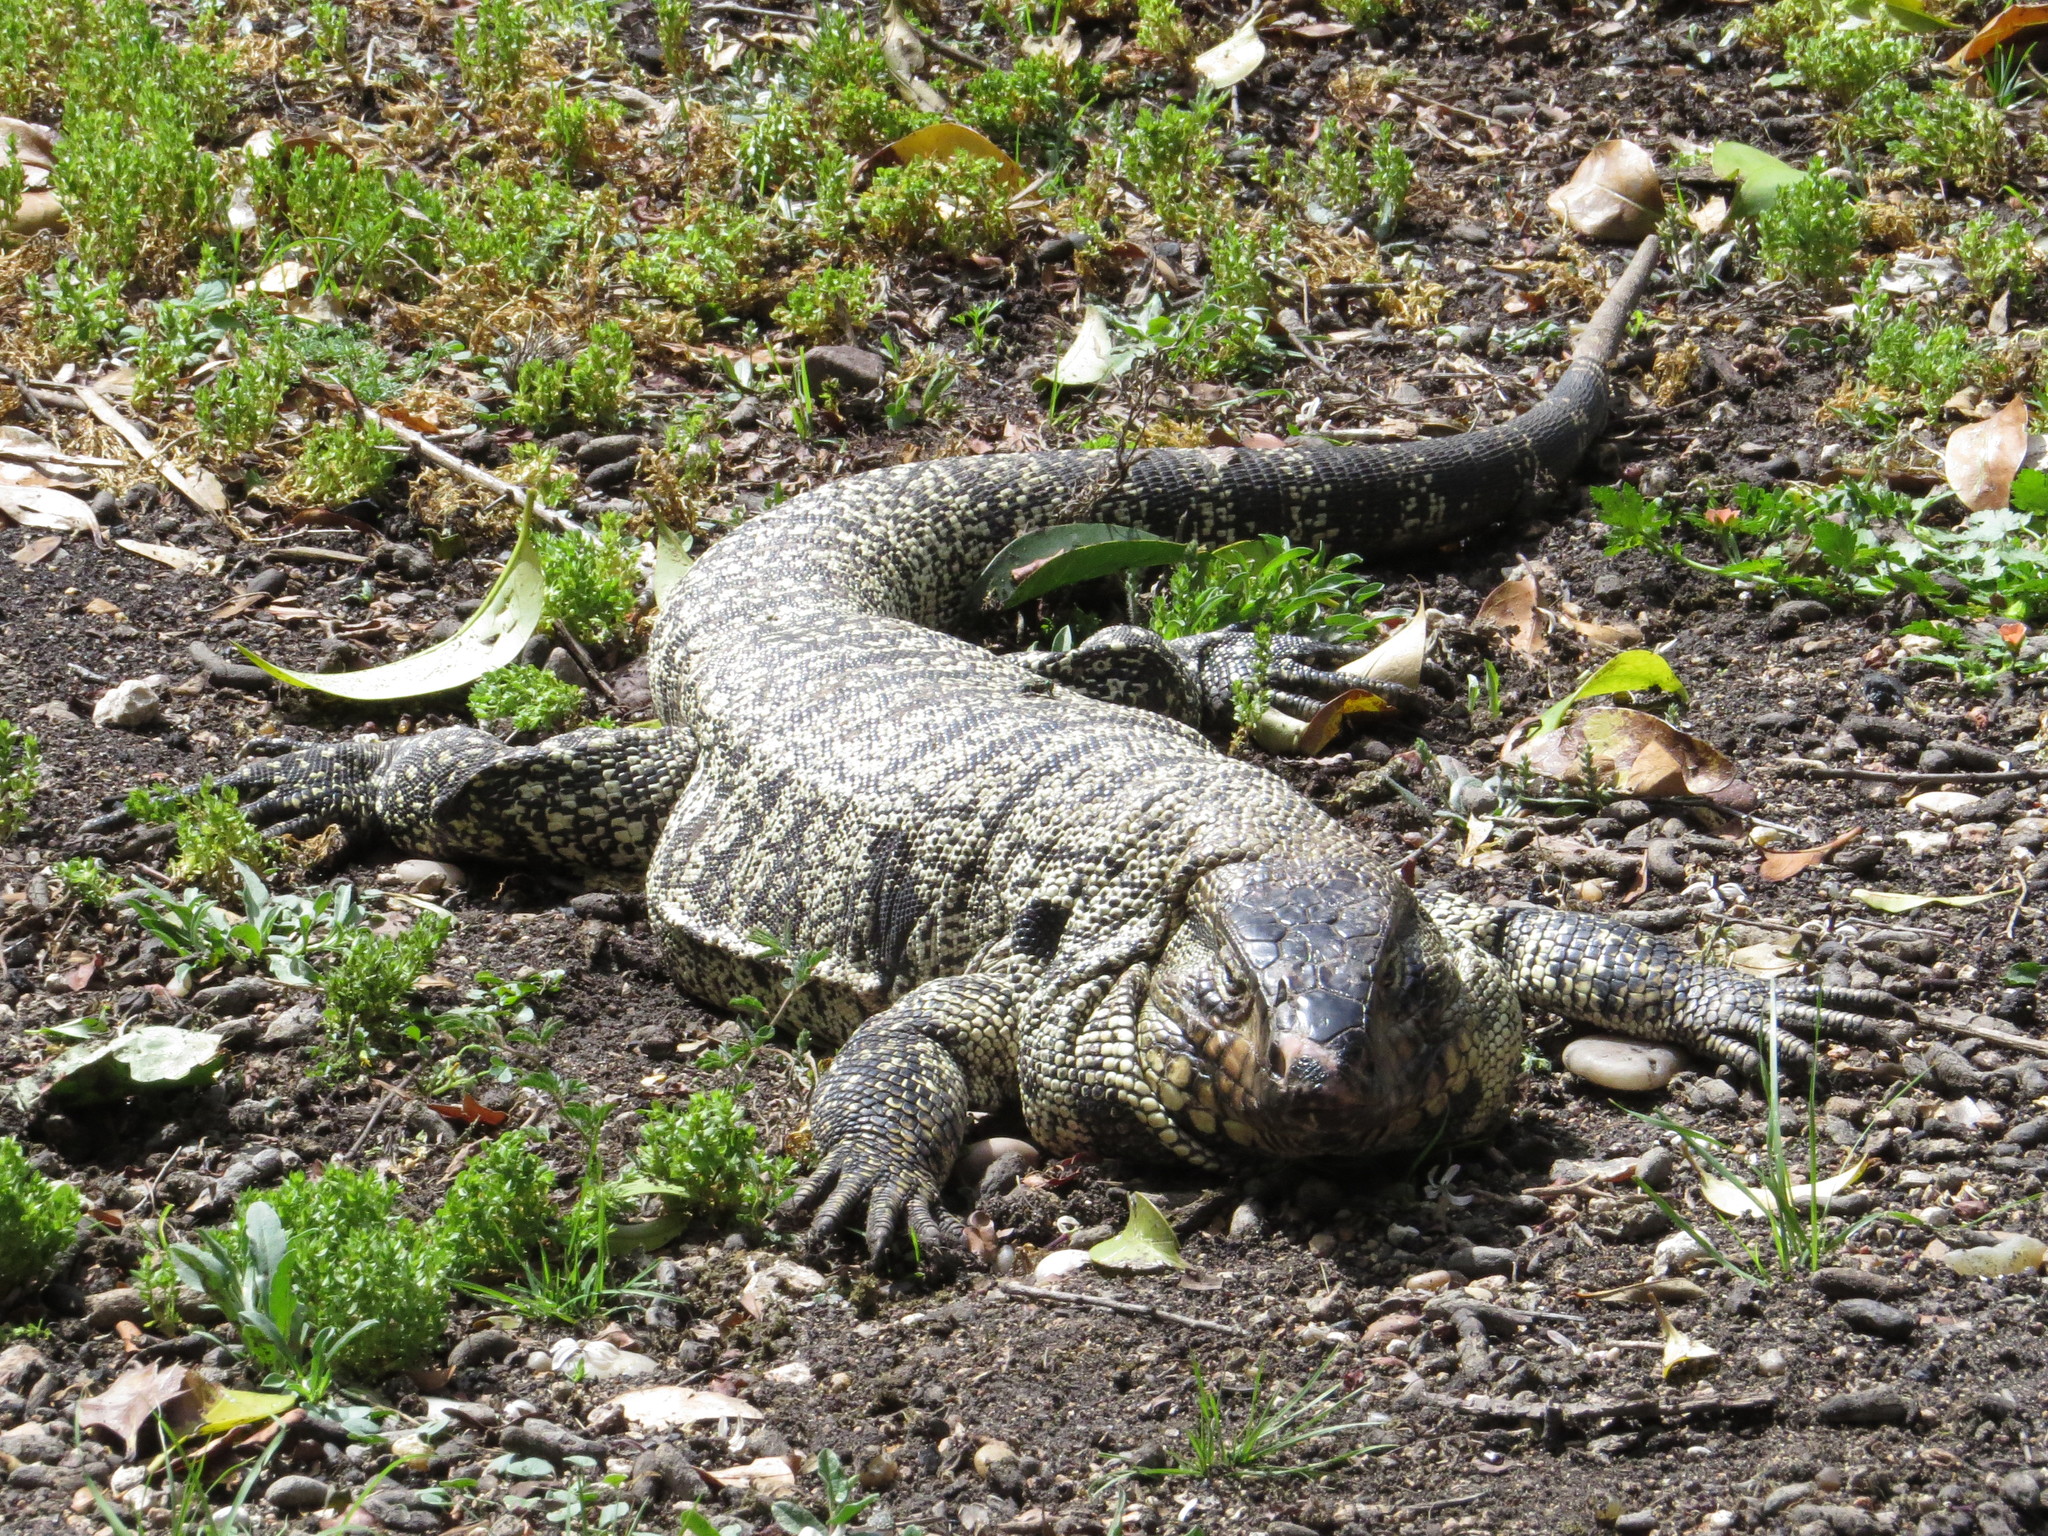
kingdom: Animalia
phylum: Chordata
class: Squamata
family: Teiidae
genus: Salvator
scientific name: Salvator merianae
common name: Argentine black and white tegu
